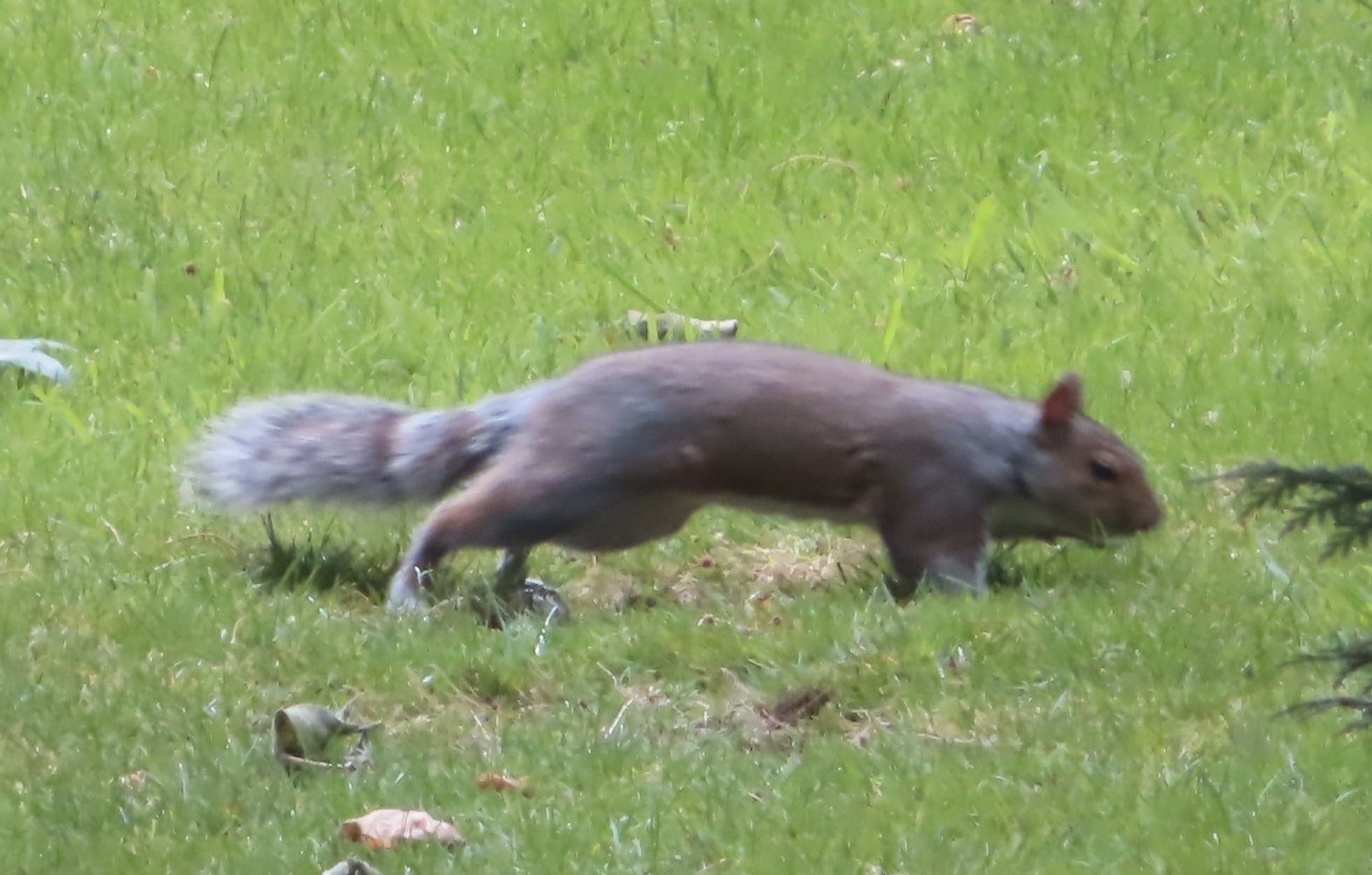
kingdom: Animalia
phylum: Chordata
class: Mammalia
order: Rodentia
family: Sciuridae
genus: Sciurus
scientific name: Sciurus carolinensis
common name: Eastern gray squirrel
